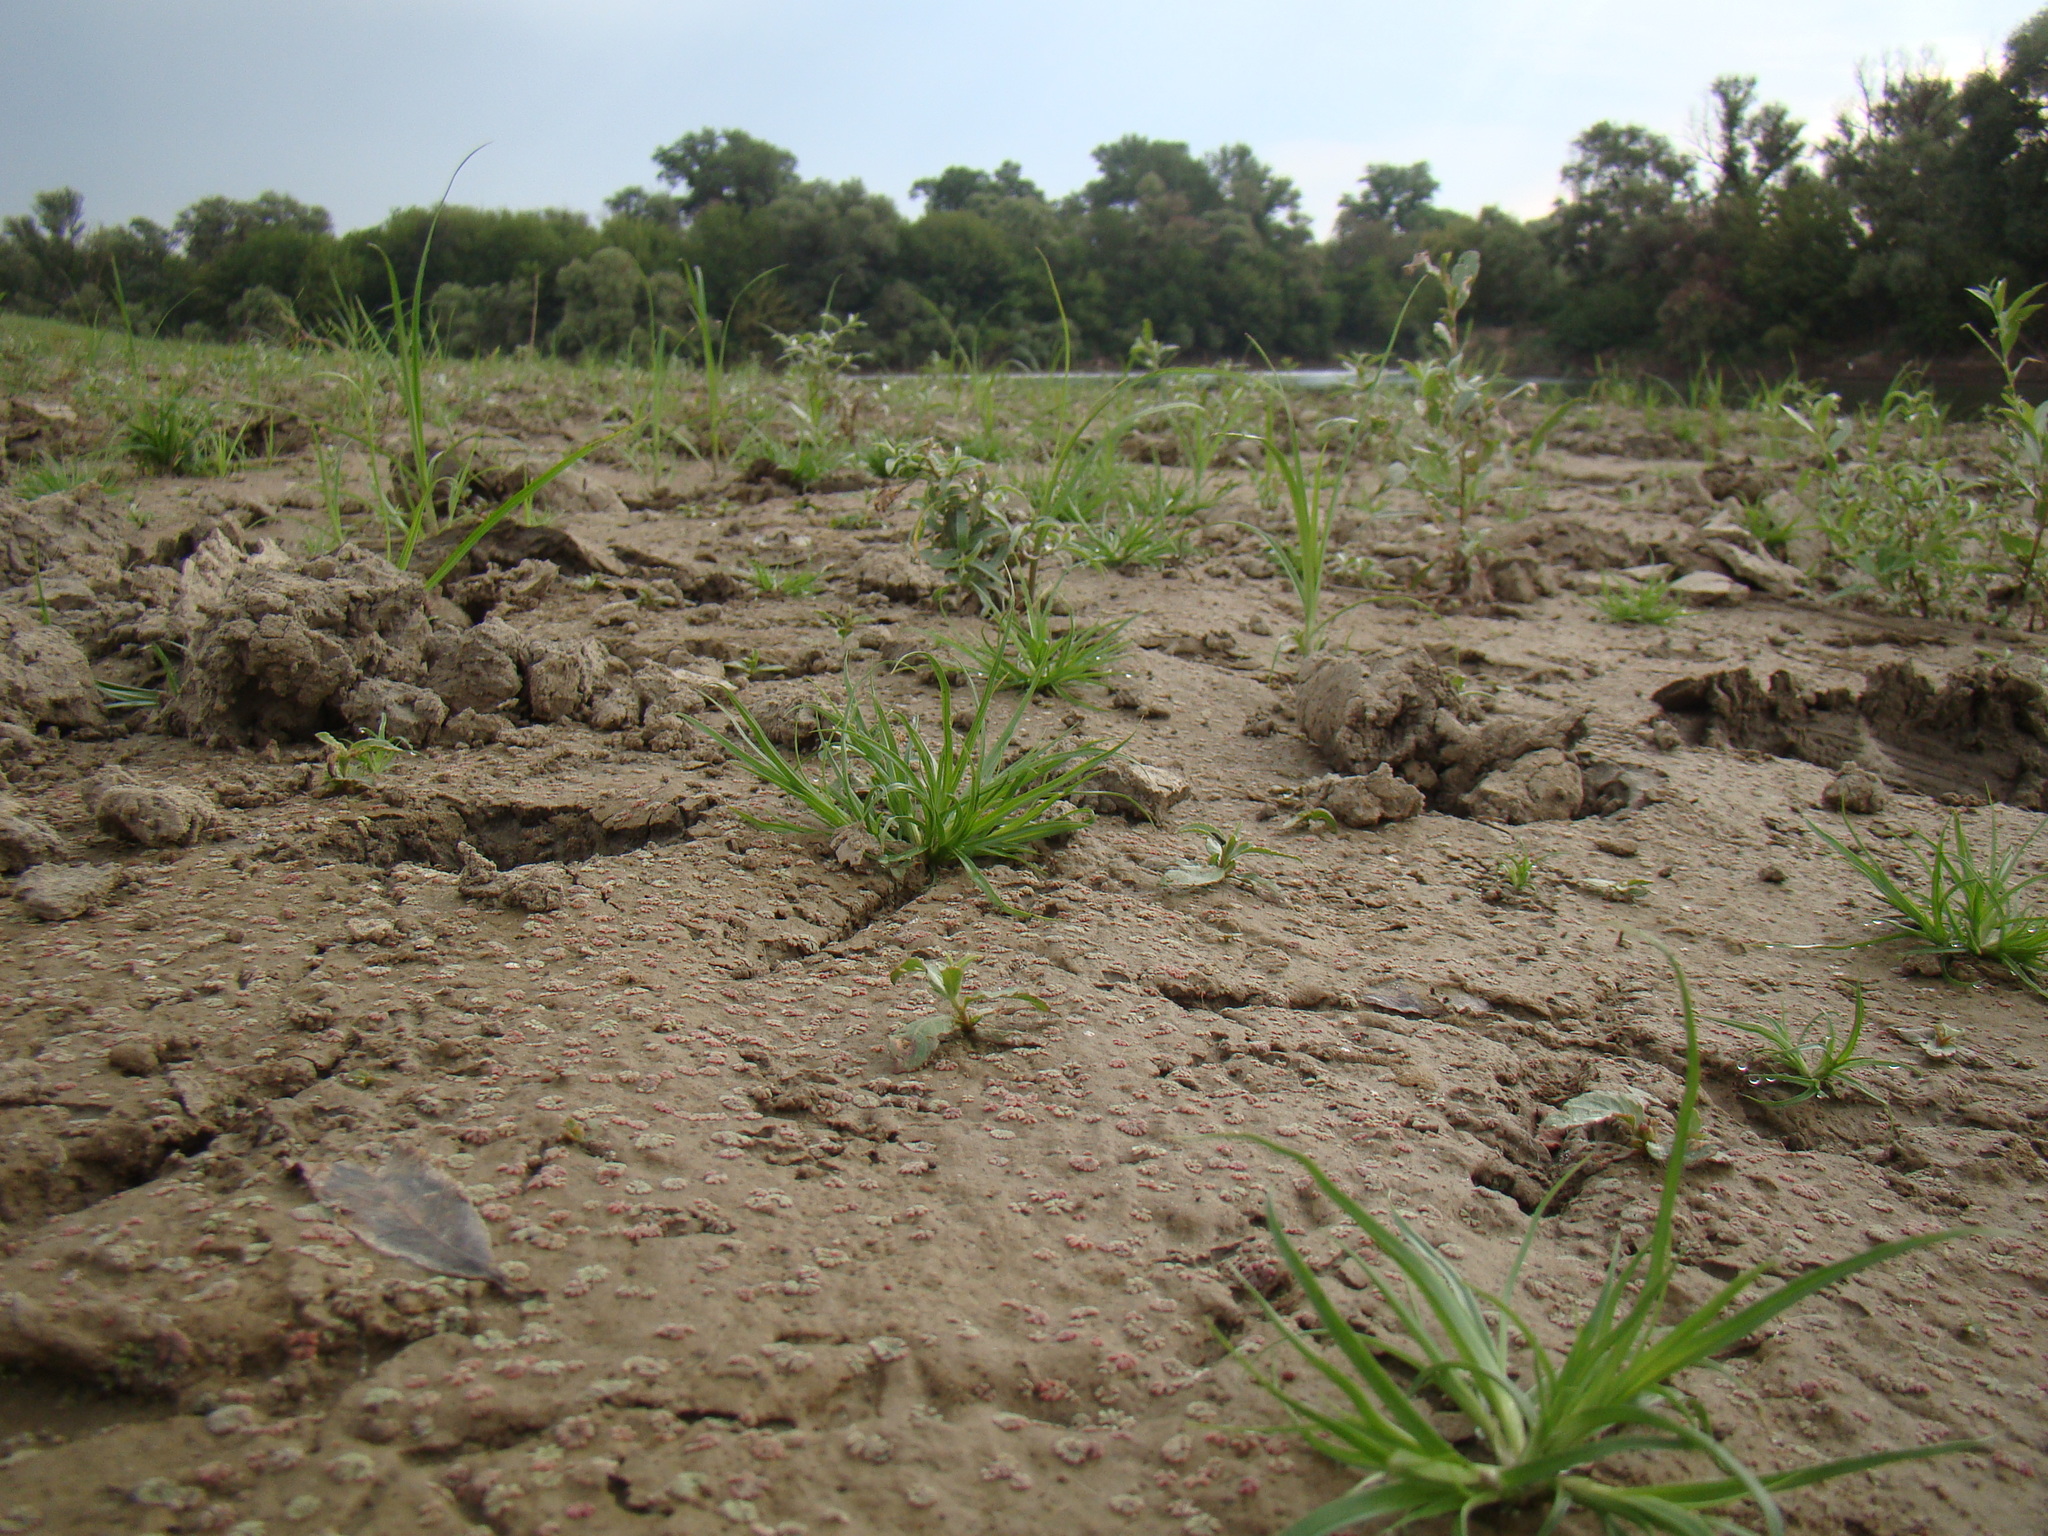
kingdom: Plantae
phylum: Marchantiophyta
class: Marchantiopsida
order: Marchantiales
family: Ricciaceae
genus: Riccia
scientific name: Riccia frostii
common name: Frost s crystalwort
